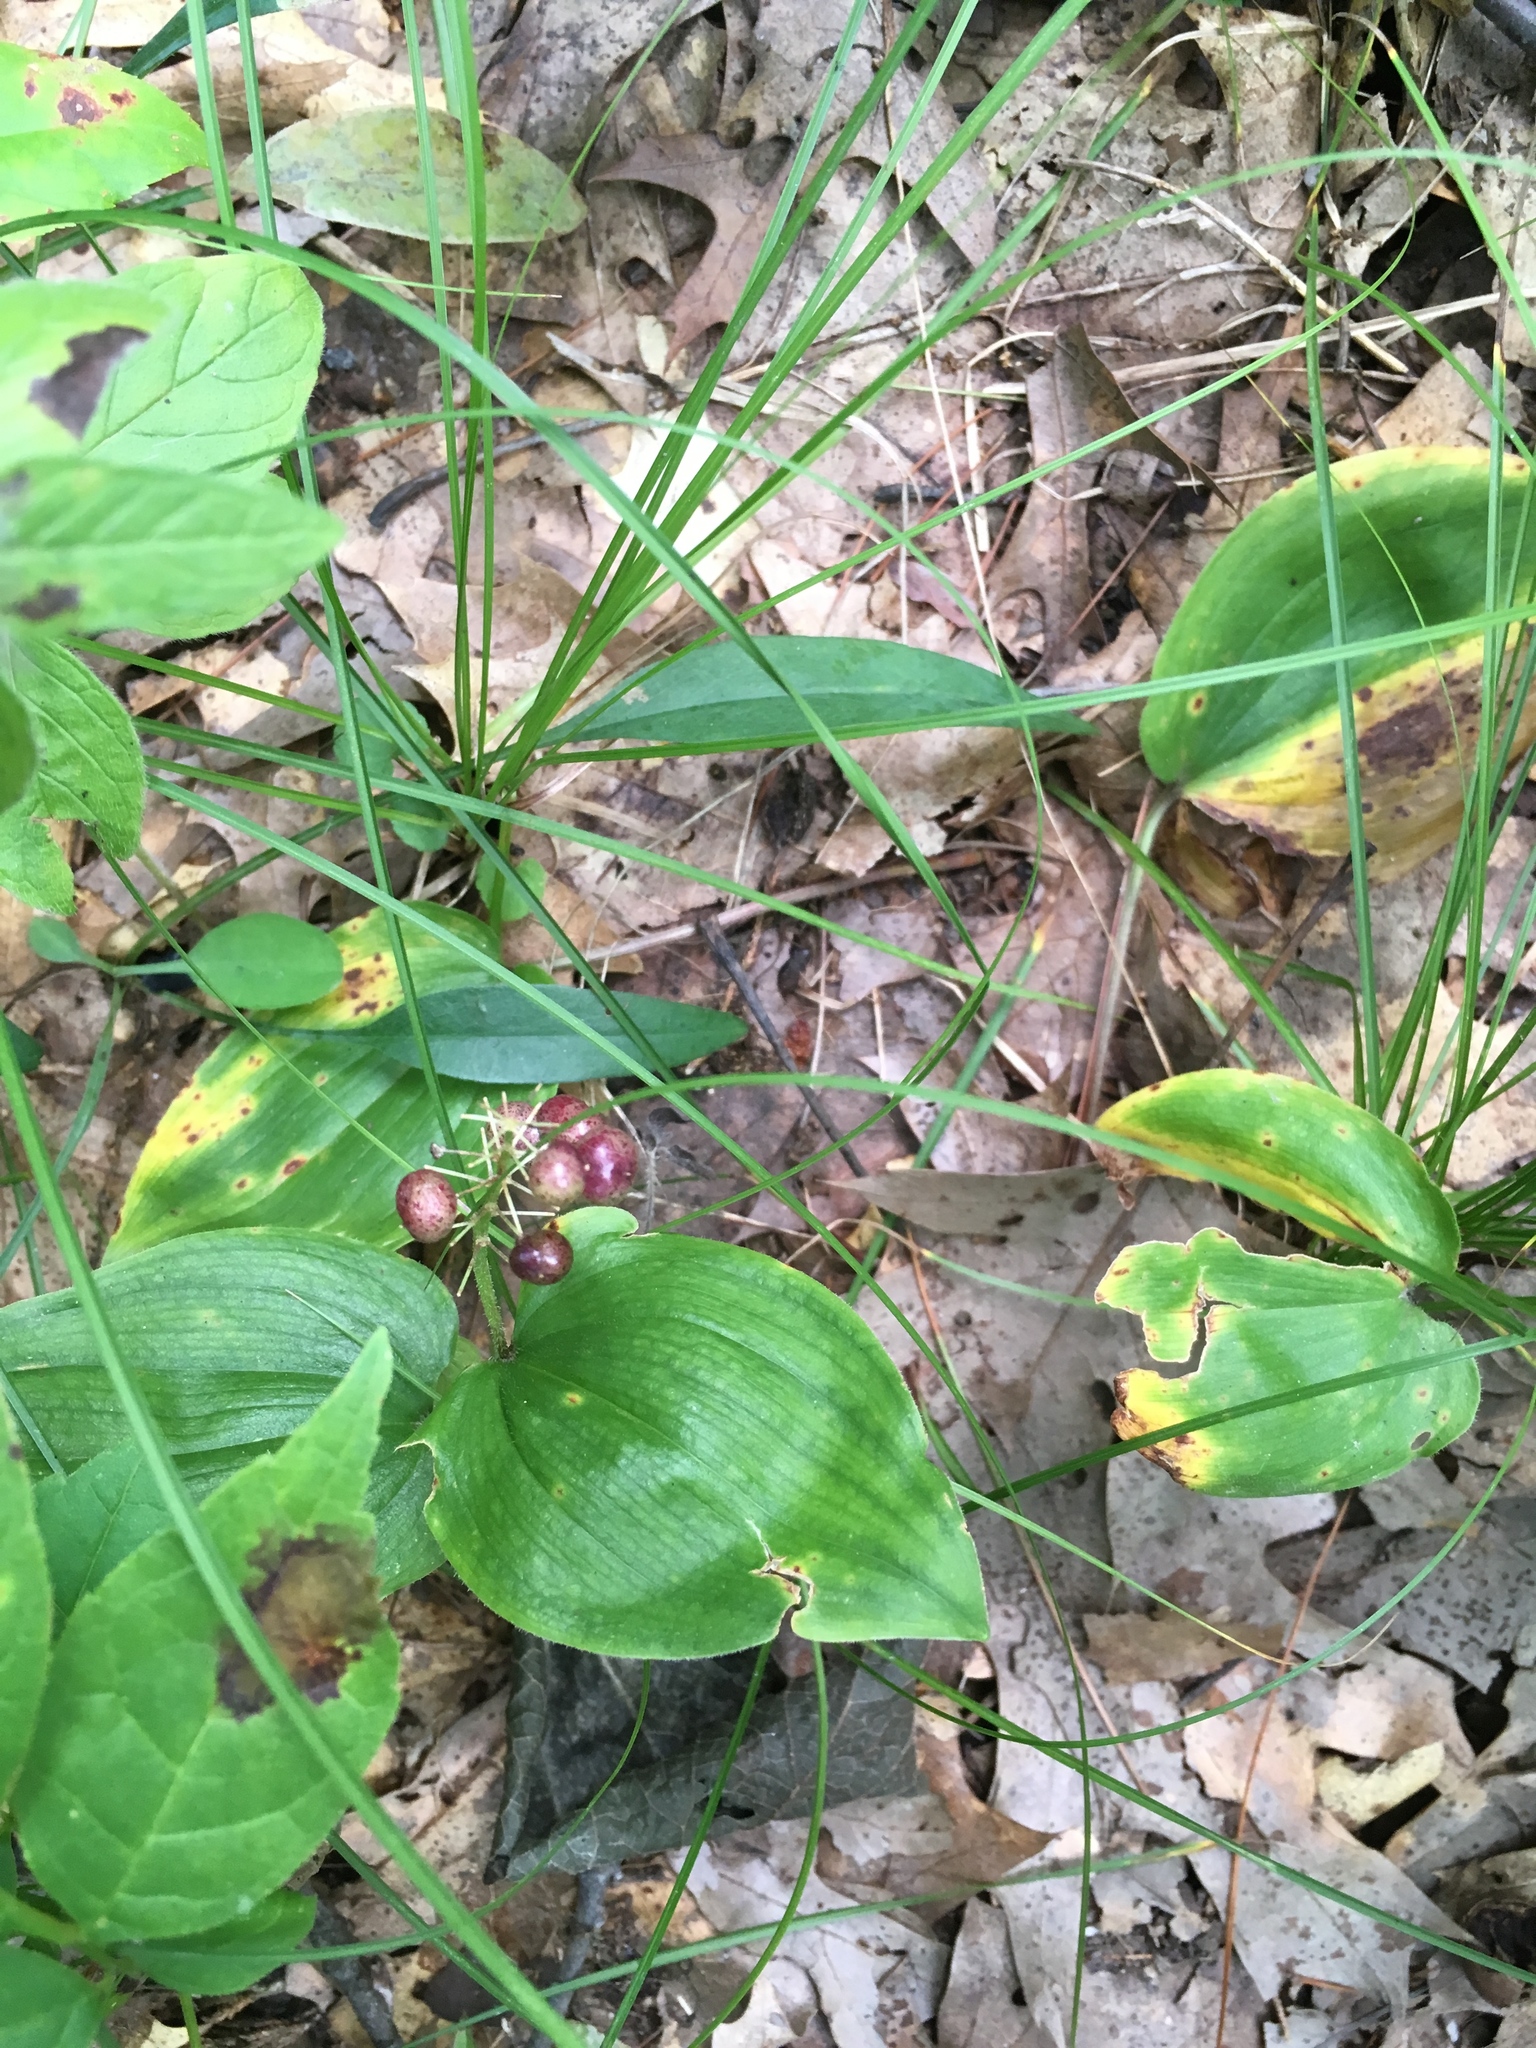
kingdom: Plantae
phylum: Tracheophyta
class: Liliopsida
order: Asparagales
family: Asparagaceae
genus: Maianthemum
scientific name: Maianthemum canadense
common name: False lily-of-the-valley
